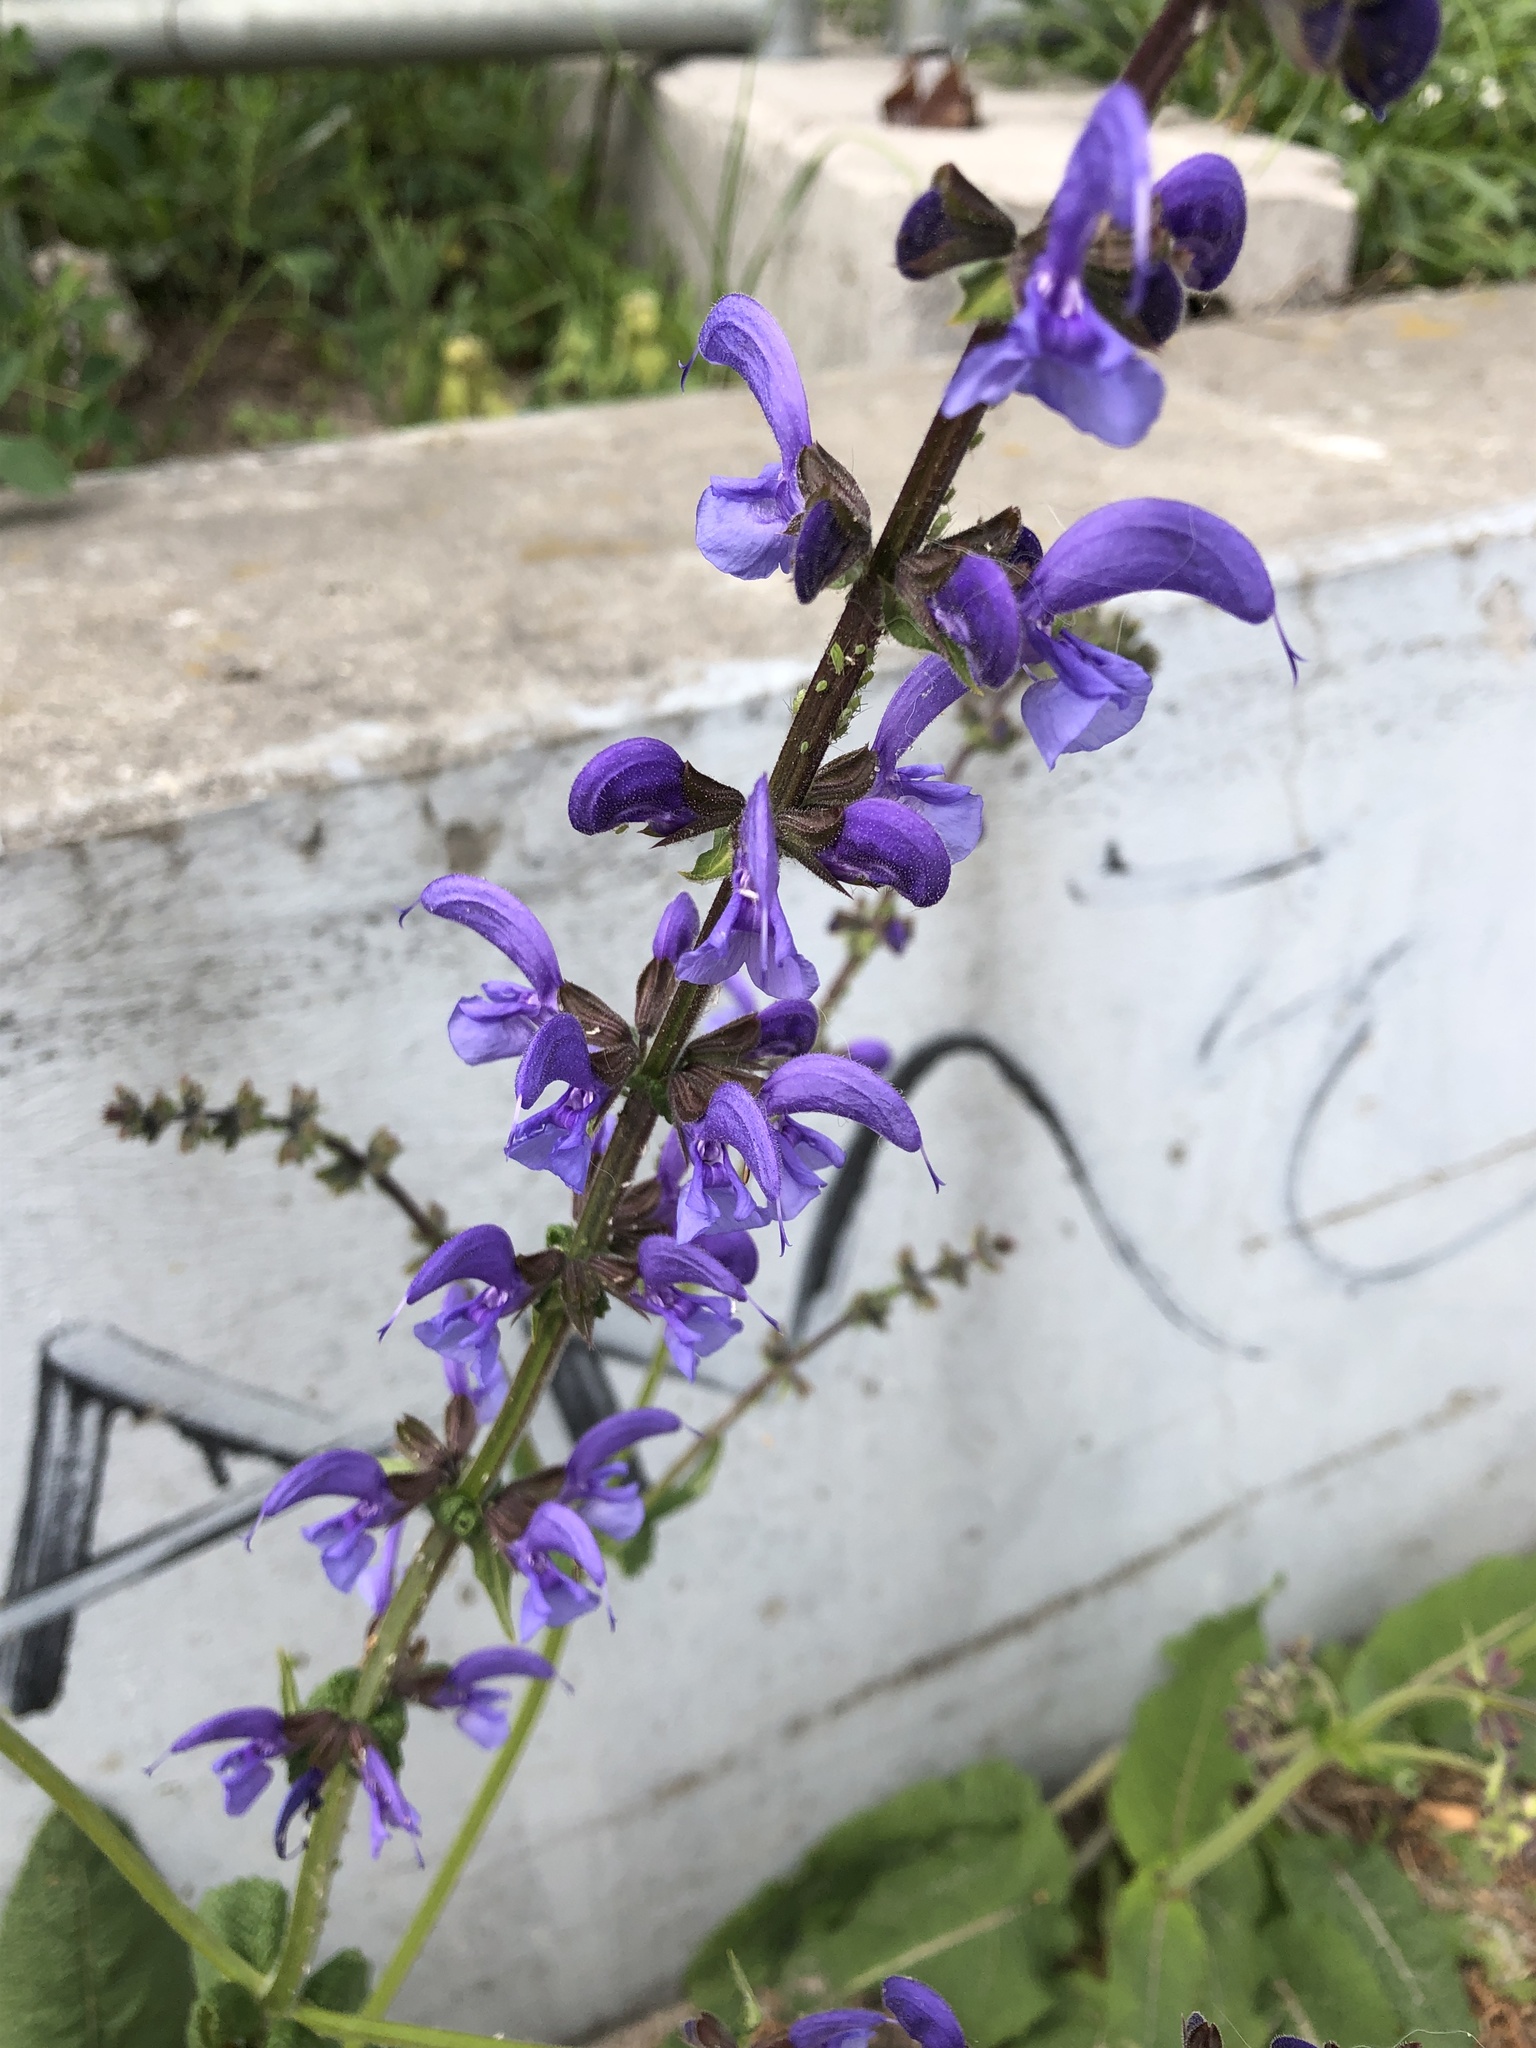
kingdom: Plantae
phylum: Tracheophyta
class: Magnoliopsida
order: Lamiales
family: Lamiaceae
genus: Salvia
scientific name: Salvia pratensis
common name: Meadow sage
